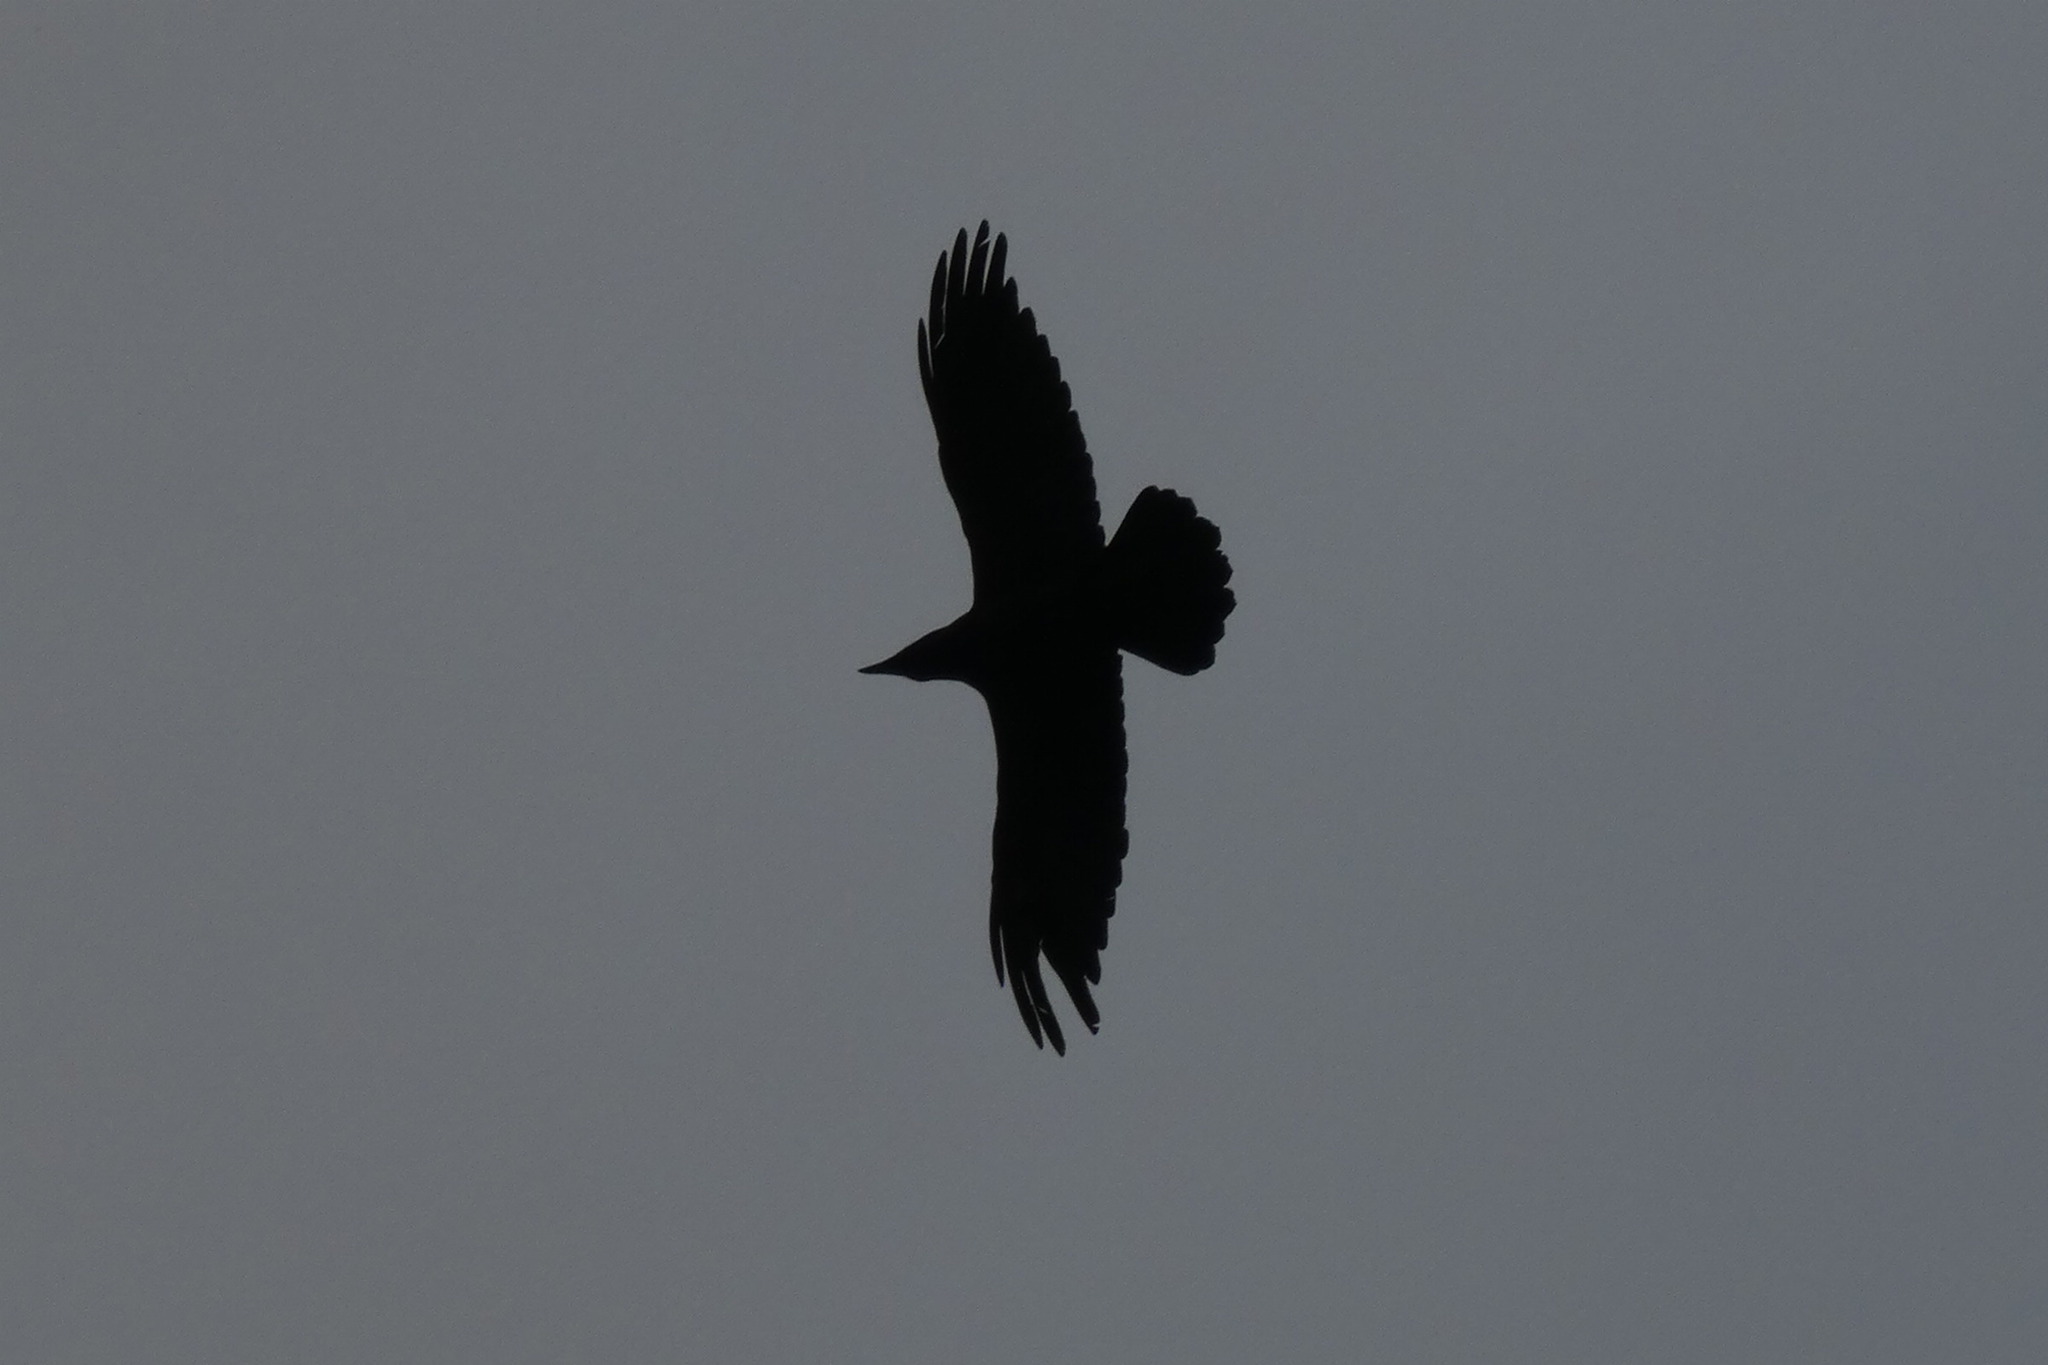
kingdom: Animalia
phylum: Chordata
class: Aves
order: Passeriformes
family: Corvidae
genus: Corvus
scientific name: Corvus corax
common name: Common raven
